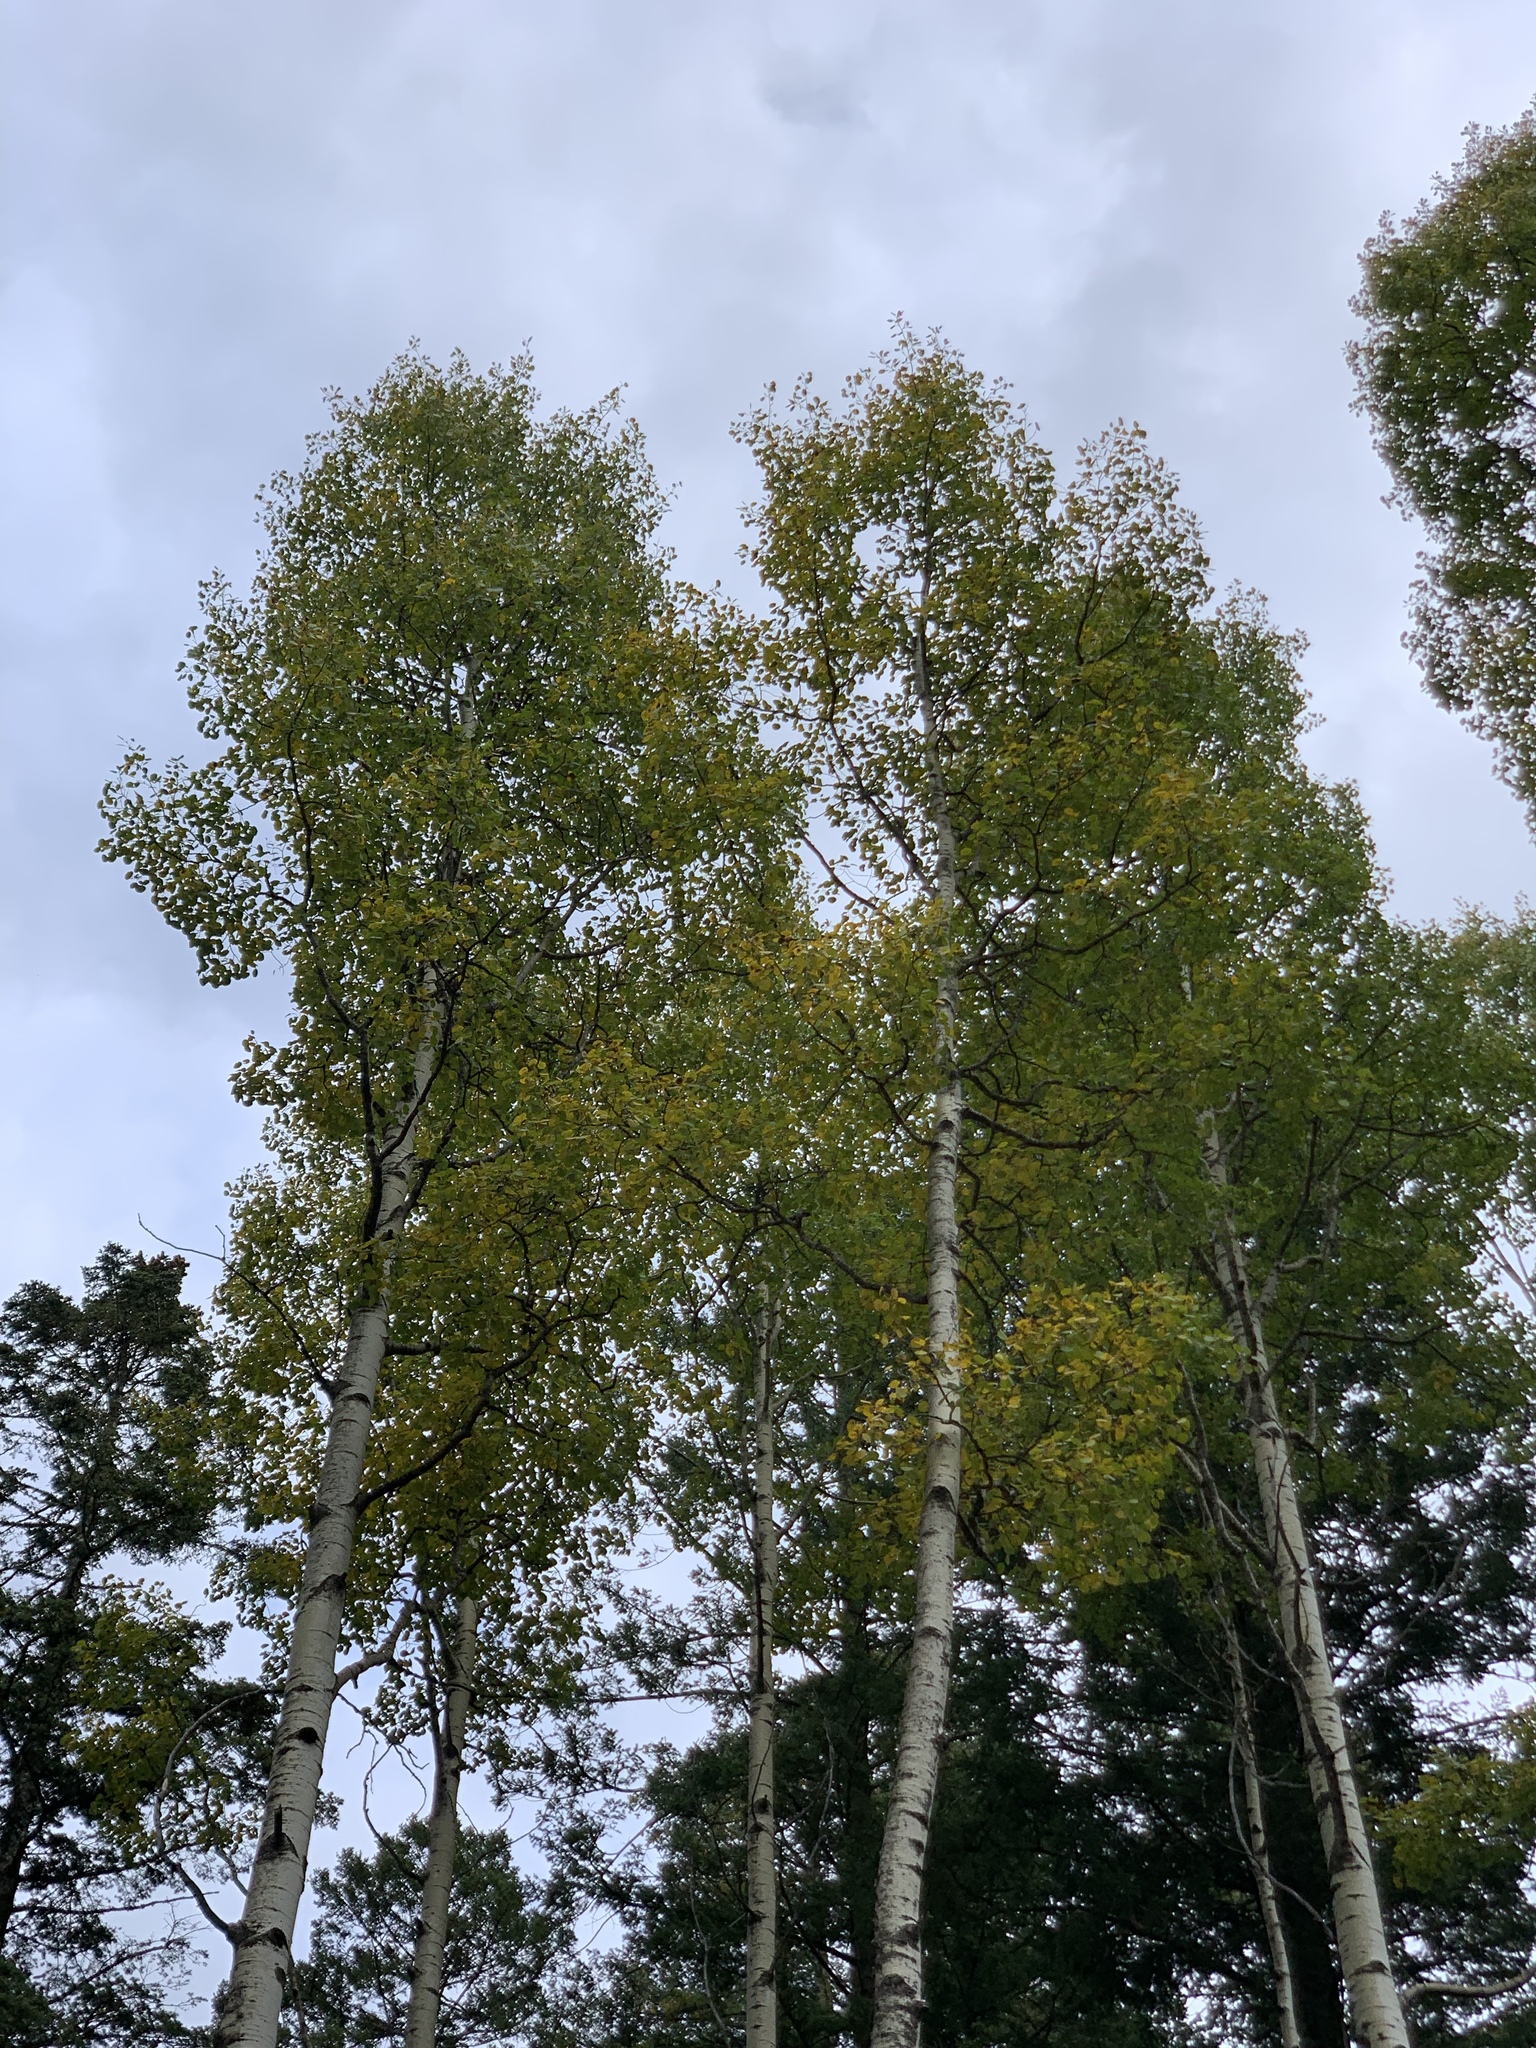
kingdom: Plantae
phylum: Tracheophyta
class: Magnoliopsida
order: Malpighiales
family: Salicaceae
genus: Populus
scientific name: Populus tremuloides
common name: Quaking aspen
